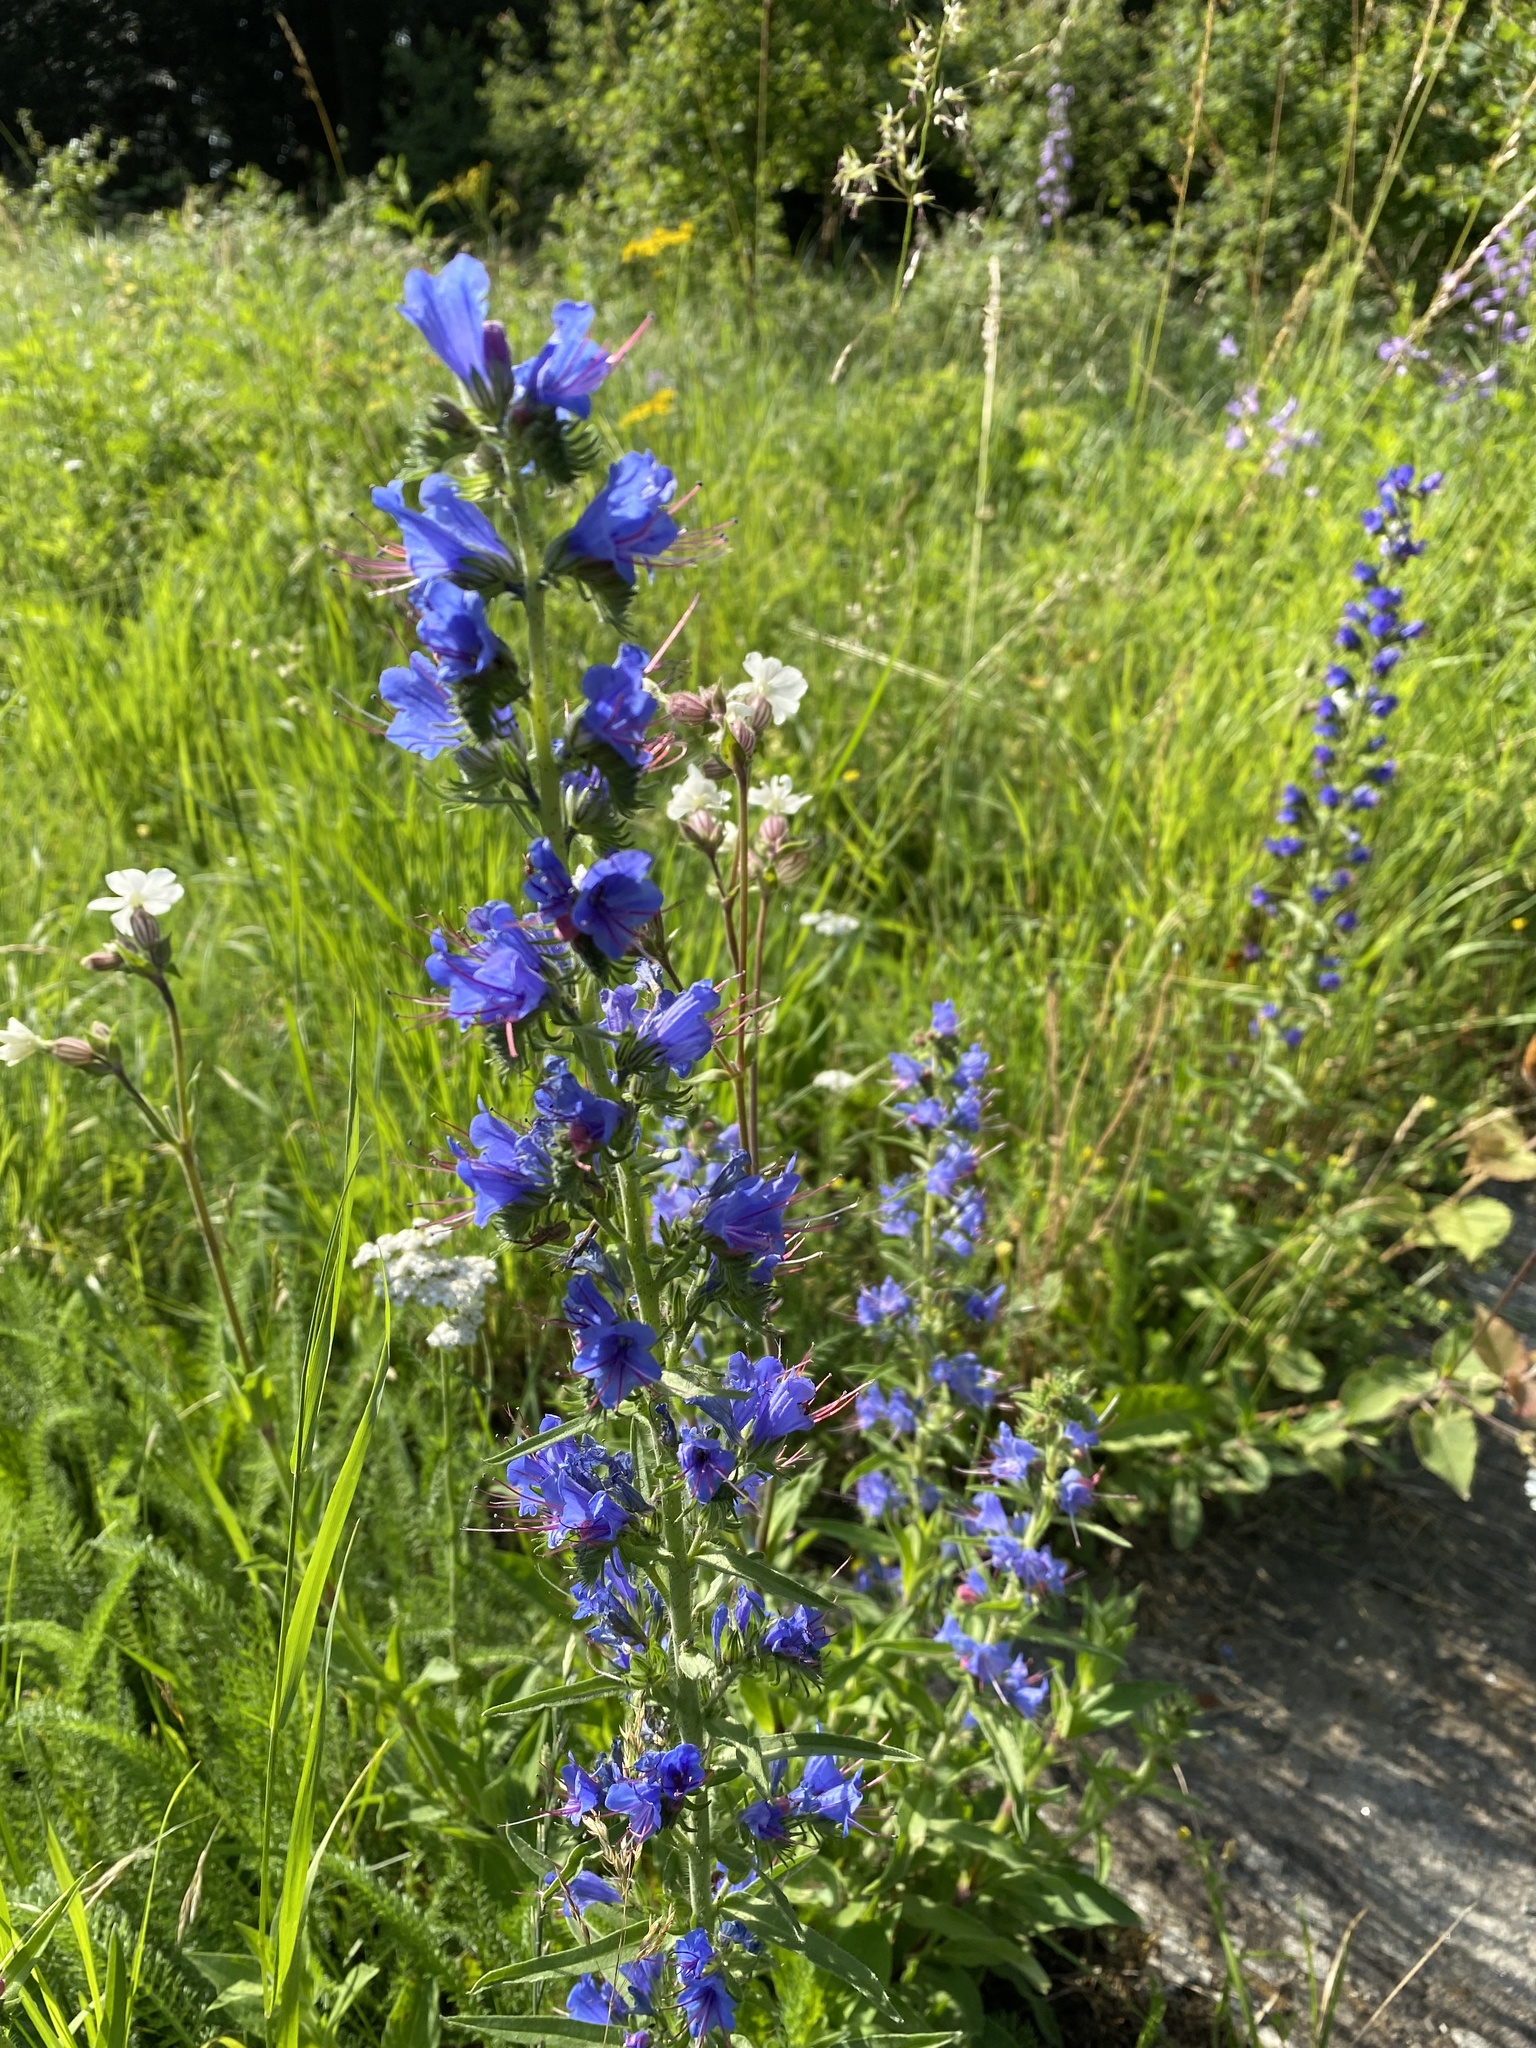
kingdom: Plantae
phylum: Tracheophyta
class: Magnoliopsida
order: Boraginales
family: Boraginaceae
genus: Echium
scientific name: Echium vulgare
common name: Common viper's bugloss
